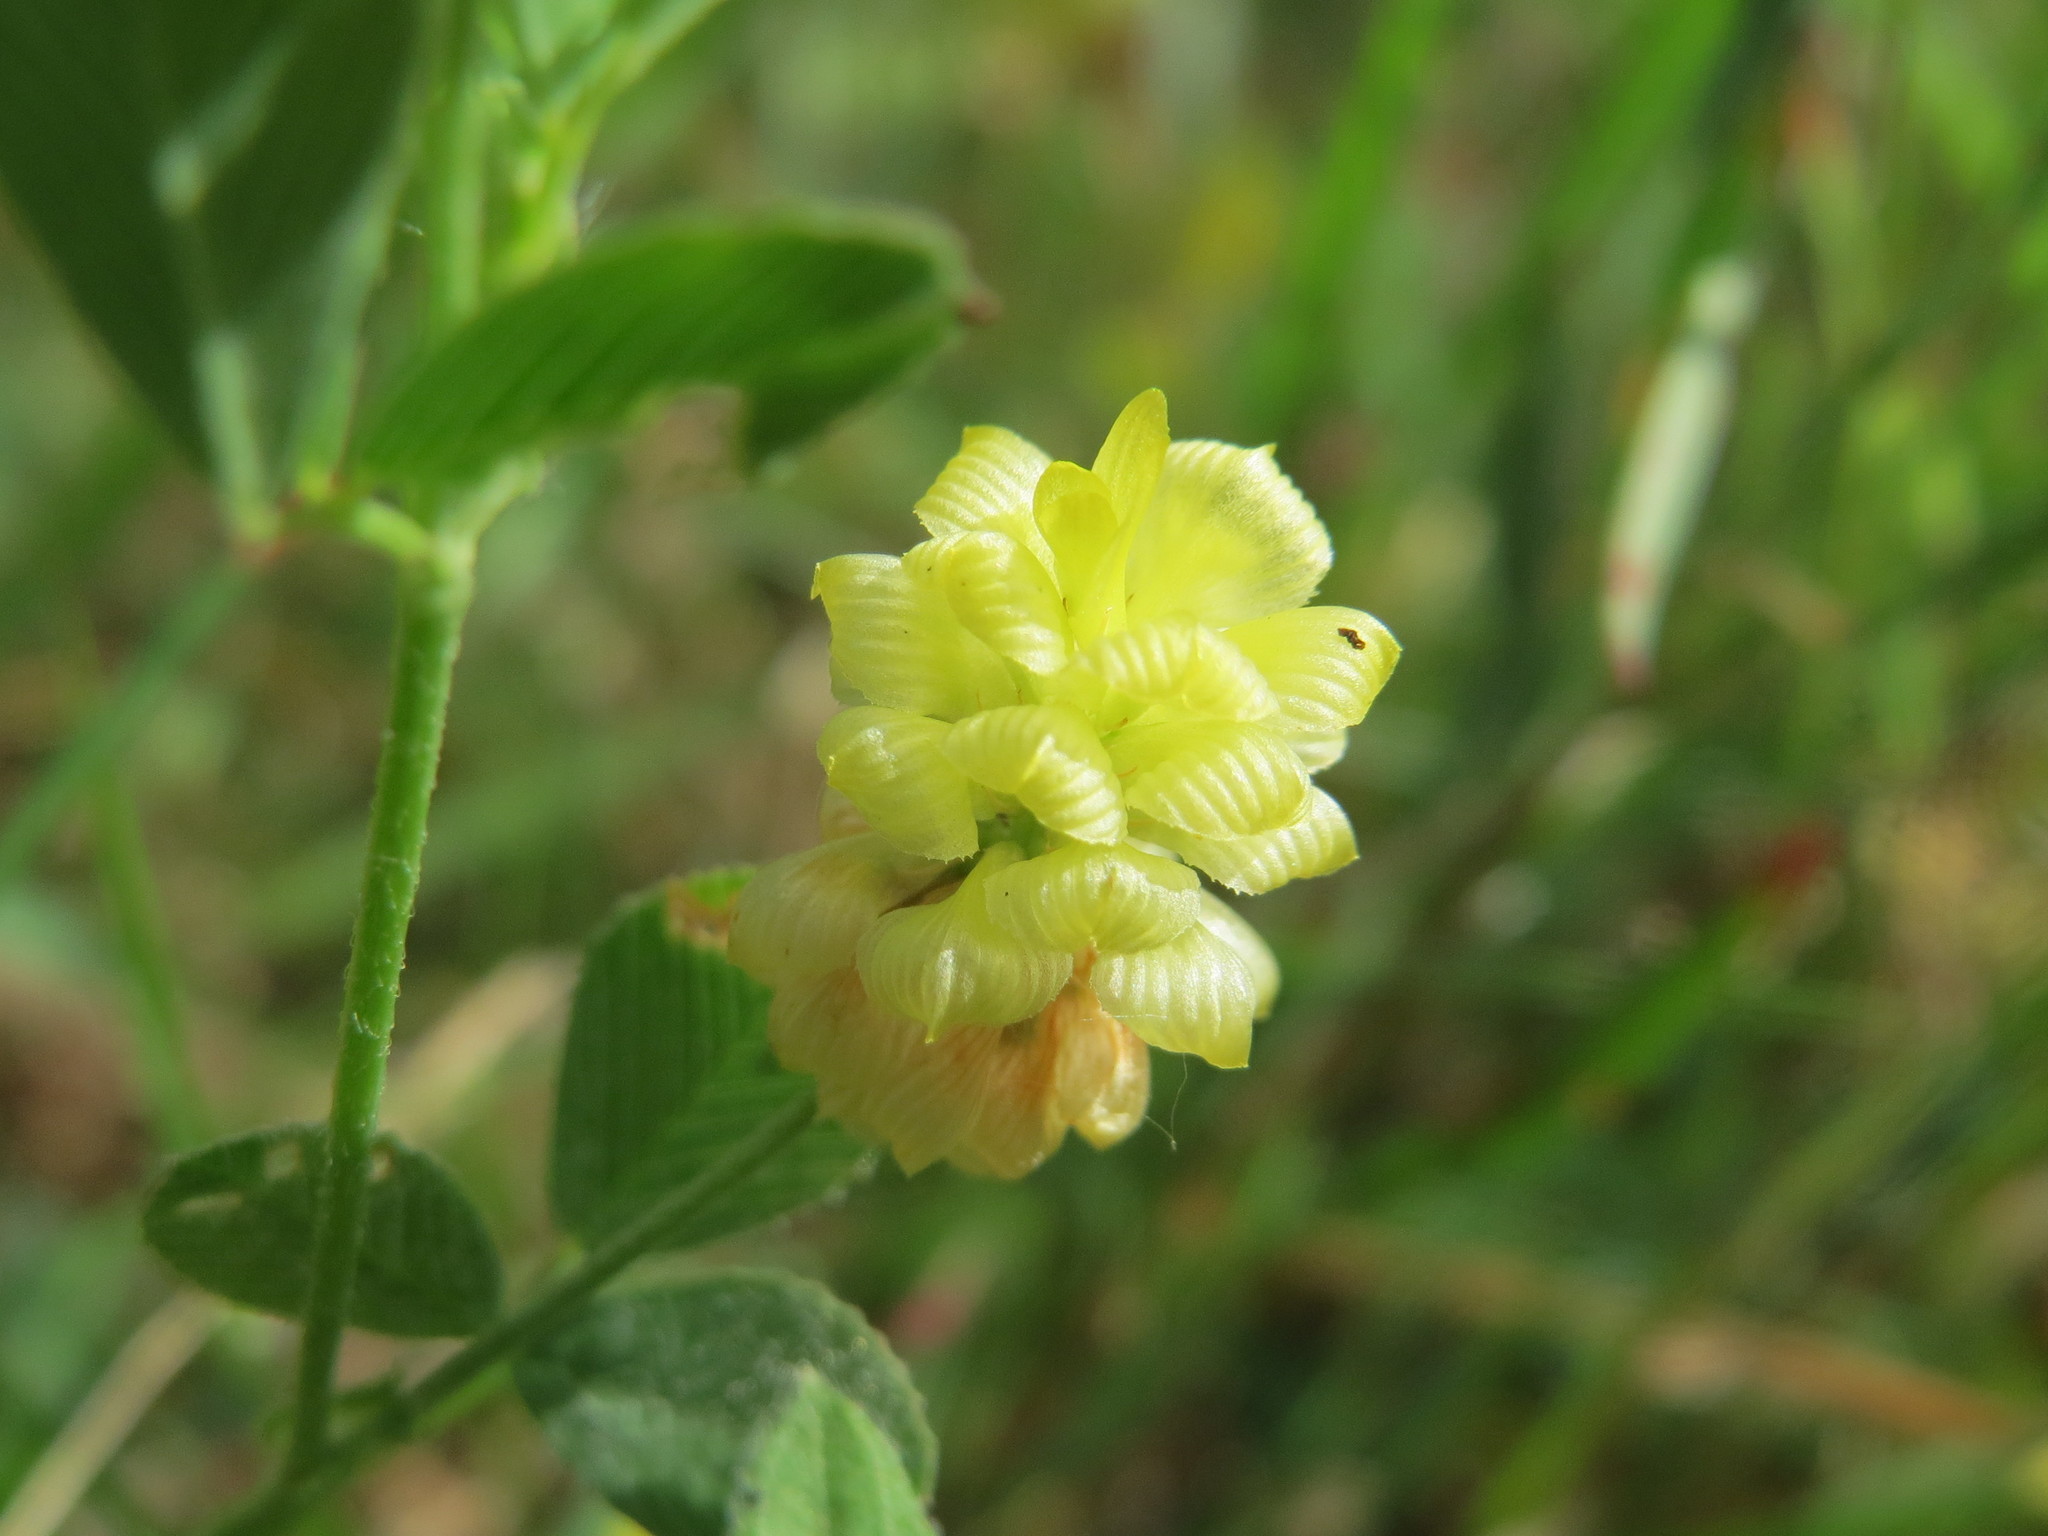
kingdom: Plantae
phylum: Tracheophyta
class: Magnoliopsida
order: Fabales
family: Fabaceae
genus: Trifolium
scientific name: Trifolium campestre
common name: Field clover
